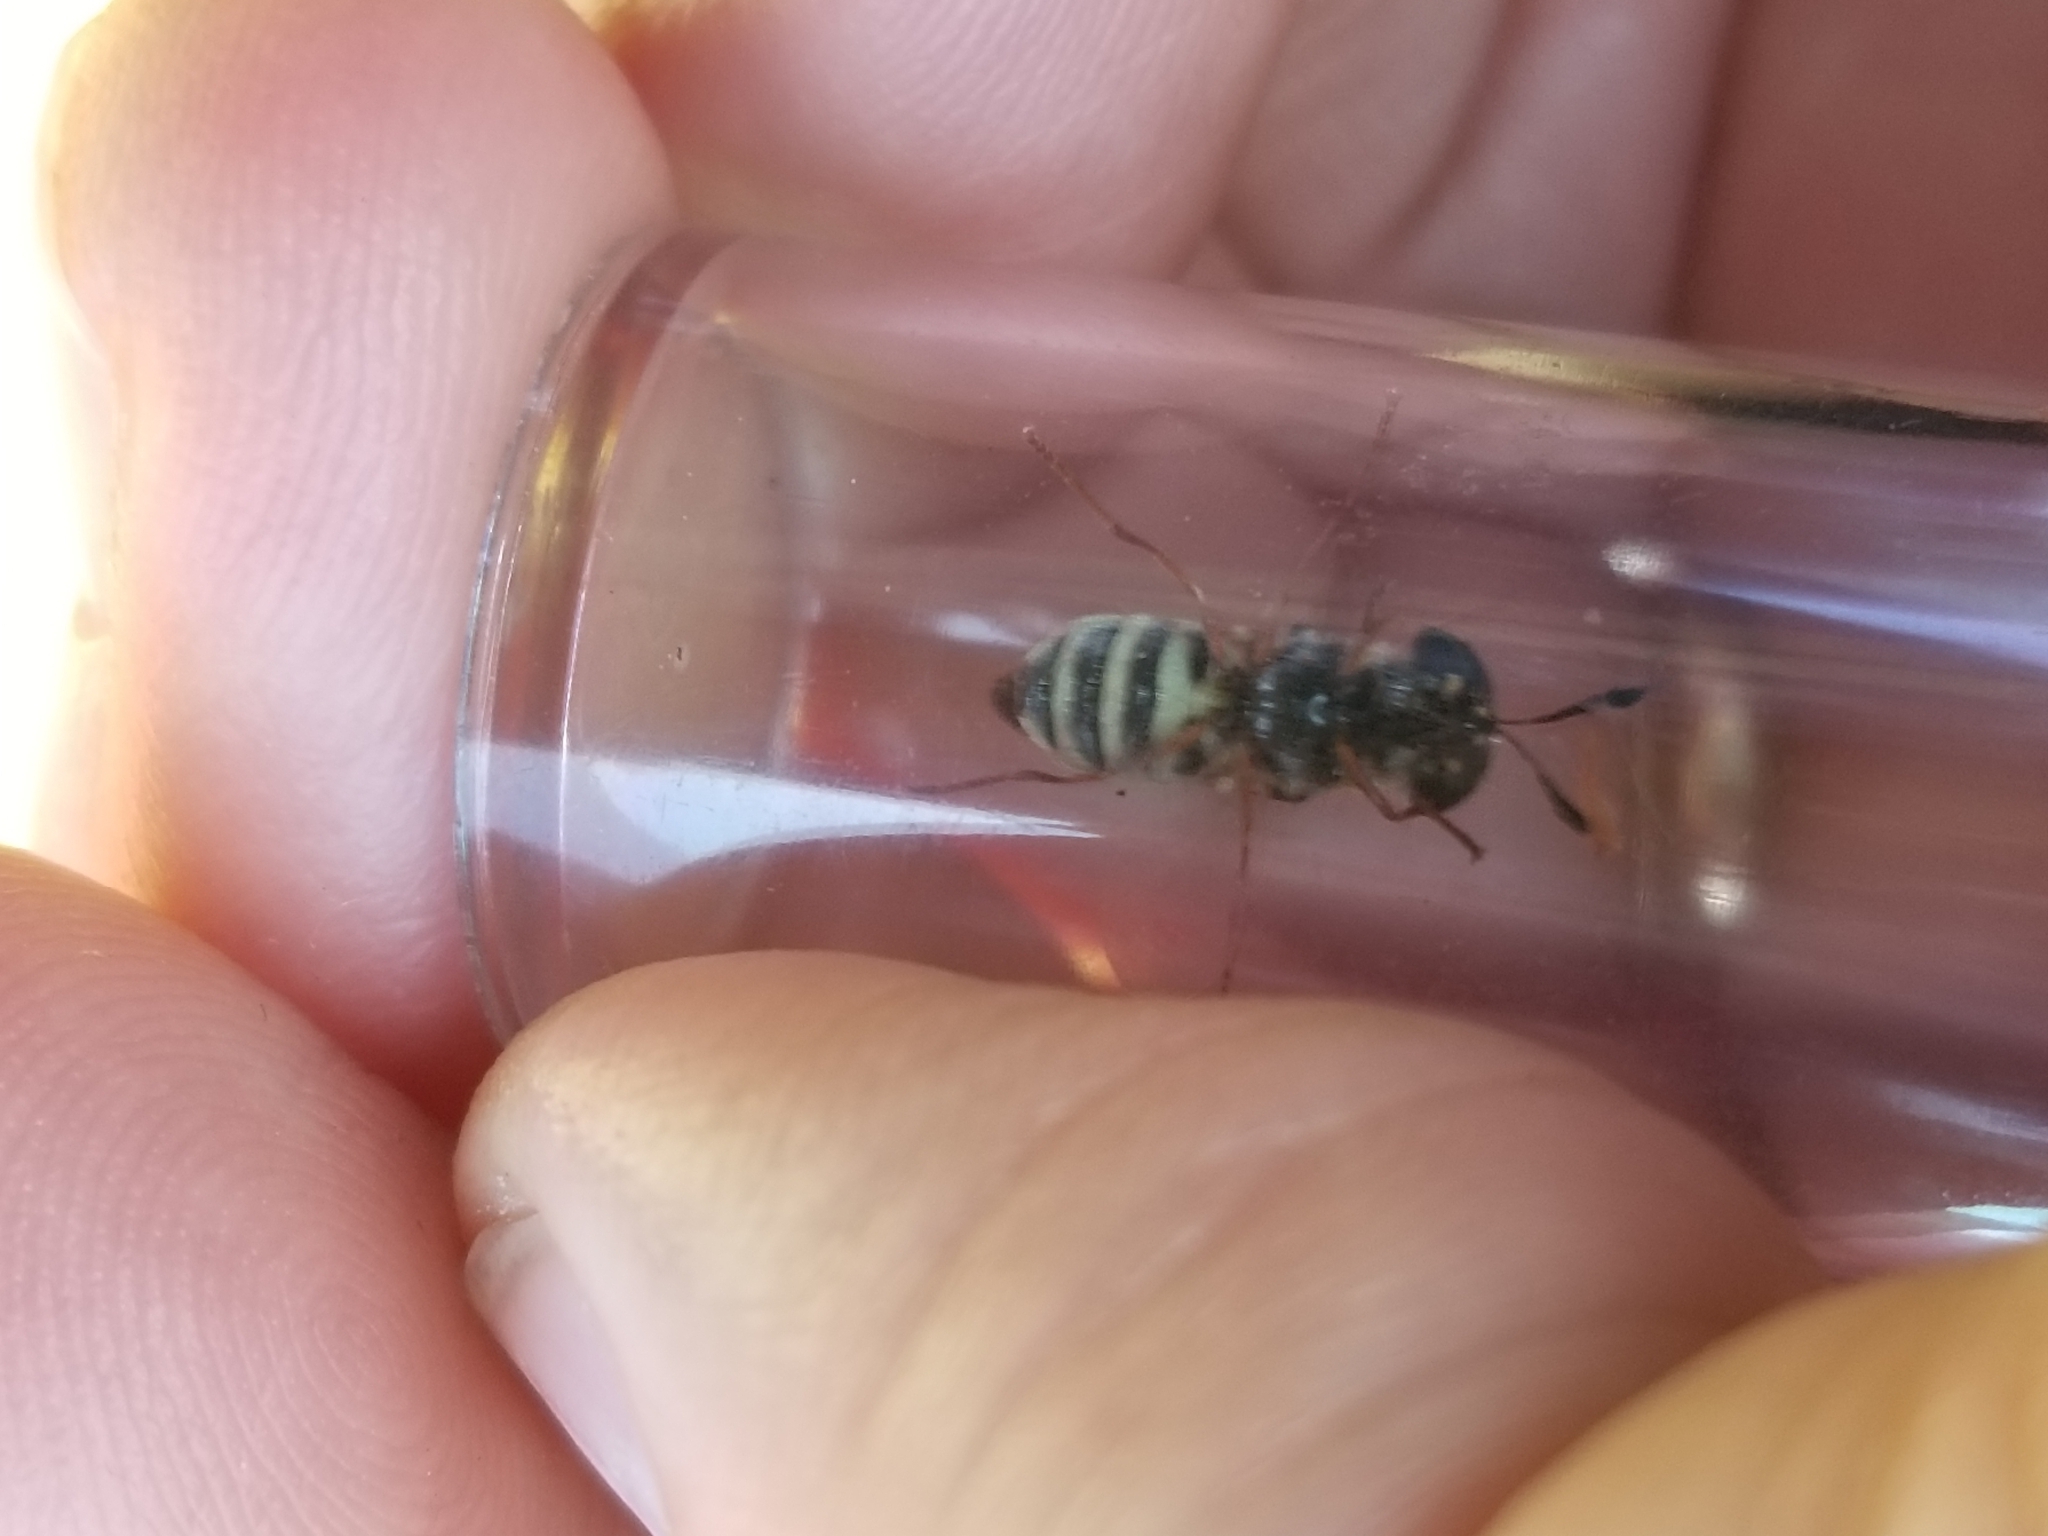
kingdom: Animalia
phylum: Arthropoda
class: Insecta
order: Diptera
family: Stratiomyidae
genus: Hoplitimyia
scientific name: Hoplitimyia constans
